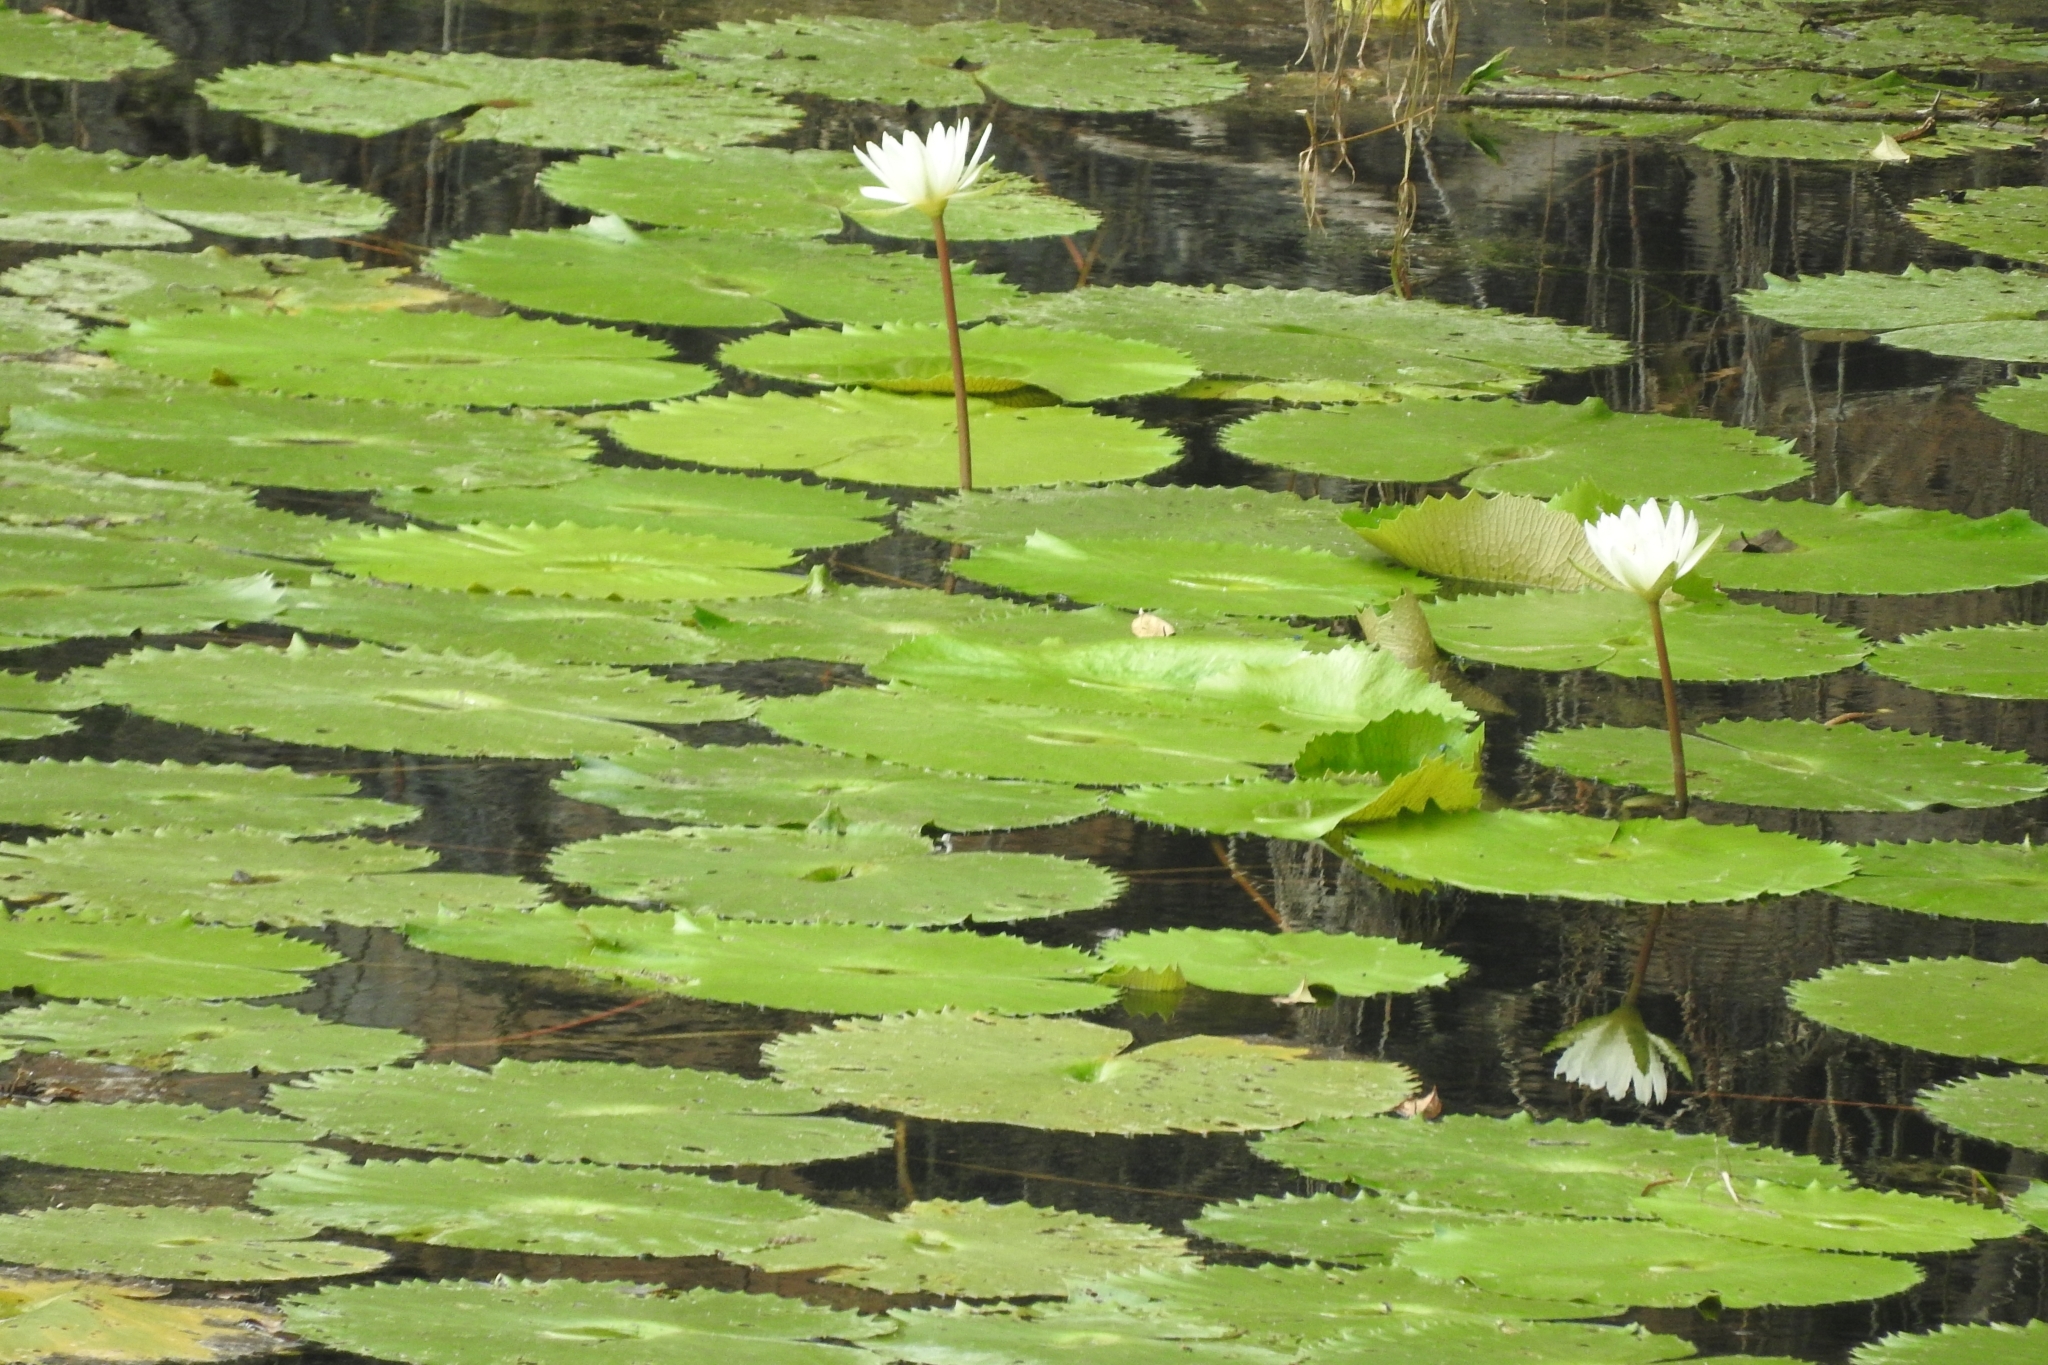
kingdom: Plantae
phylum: Tracheophyta
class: Magnoliopsida
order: Nymphaeales
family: Nymphaeaceae
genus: Nymphaea
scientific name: Nymphaea ampla
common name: Dotleaf waterlily
